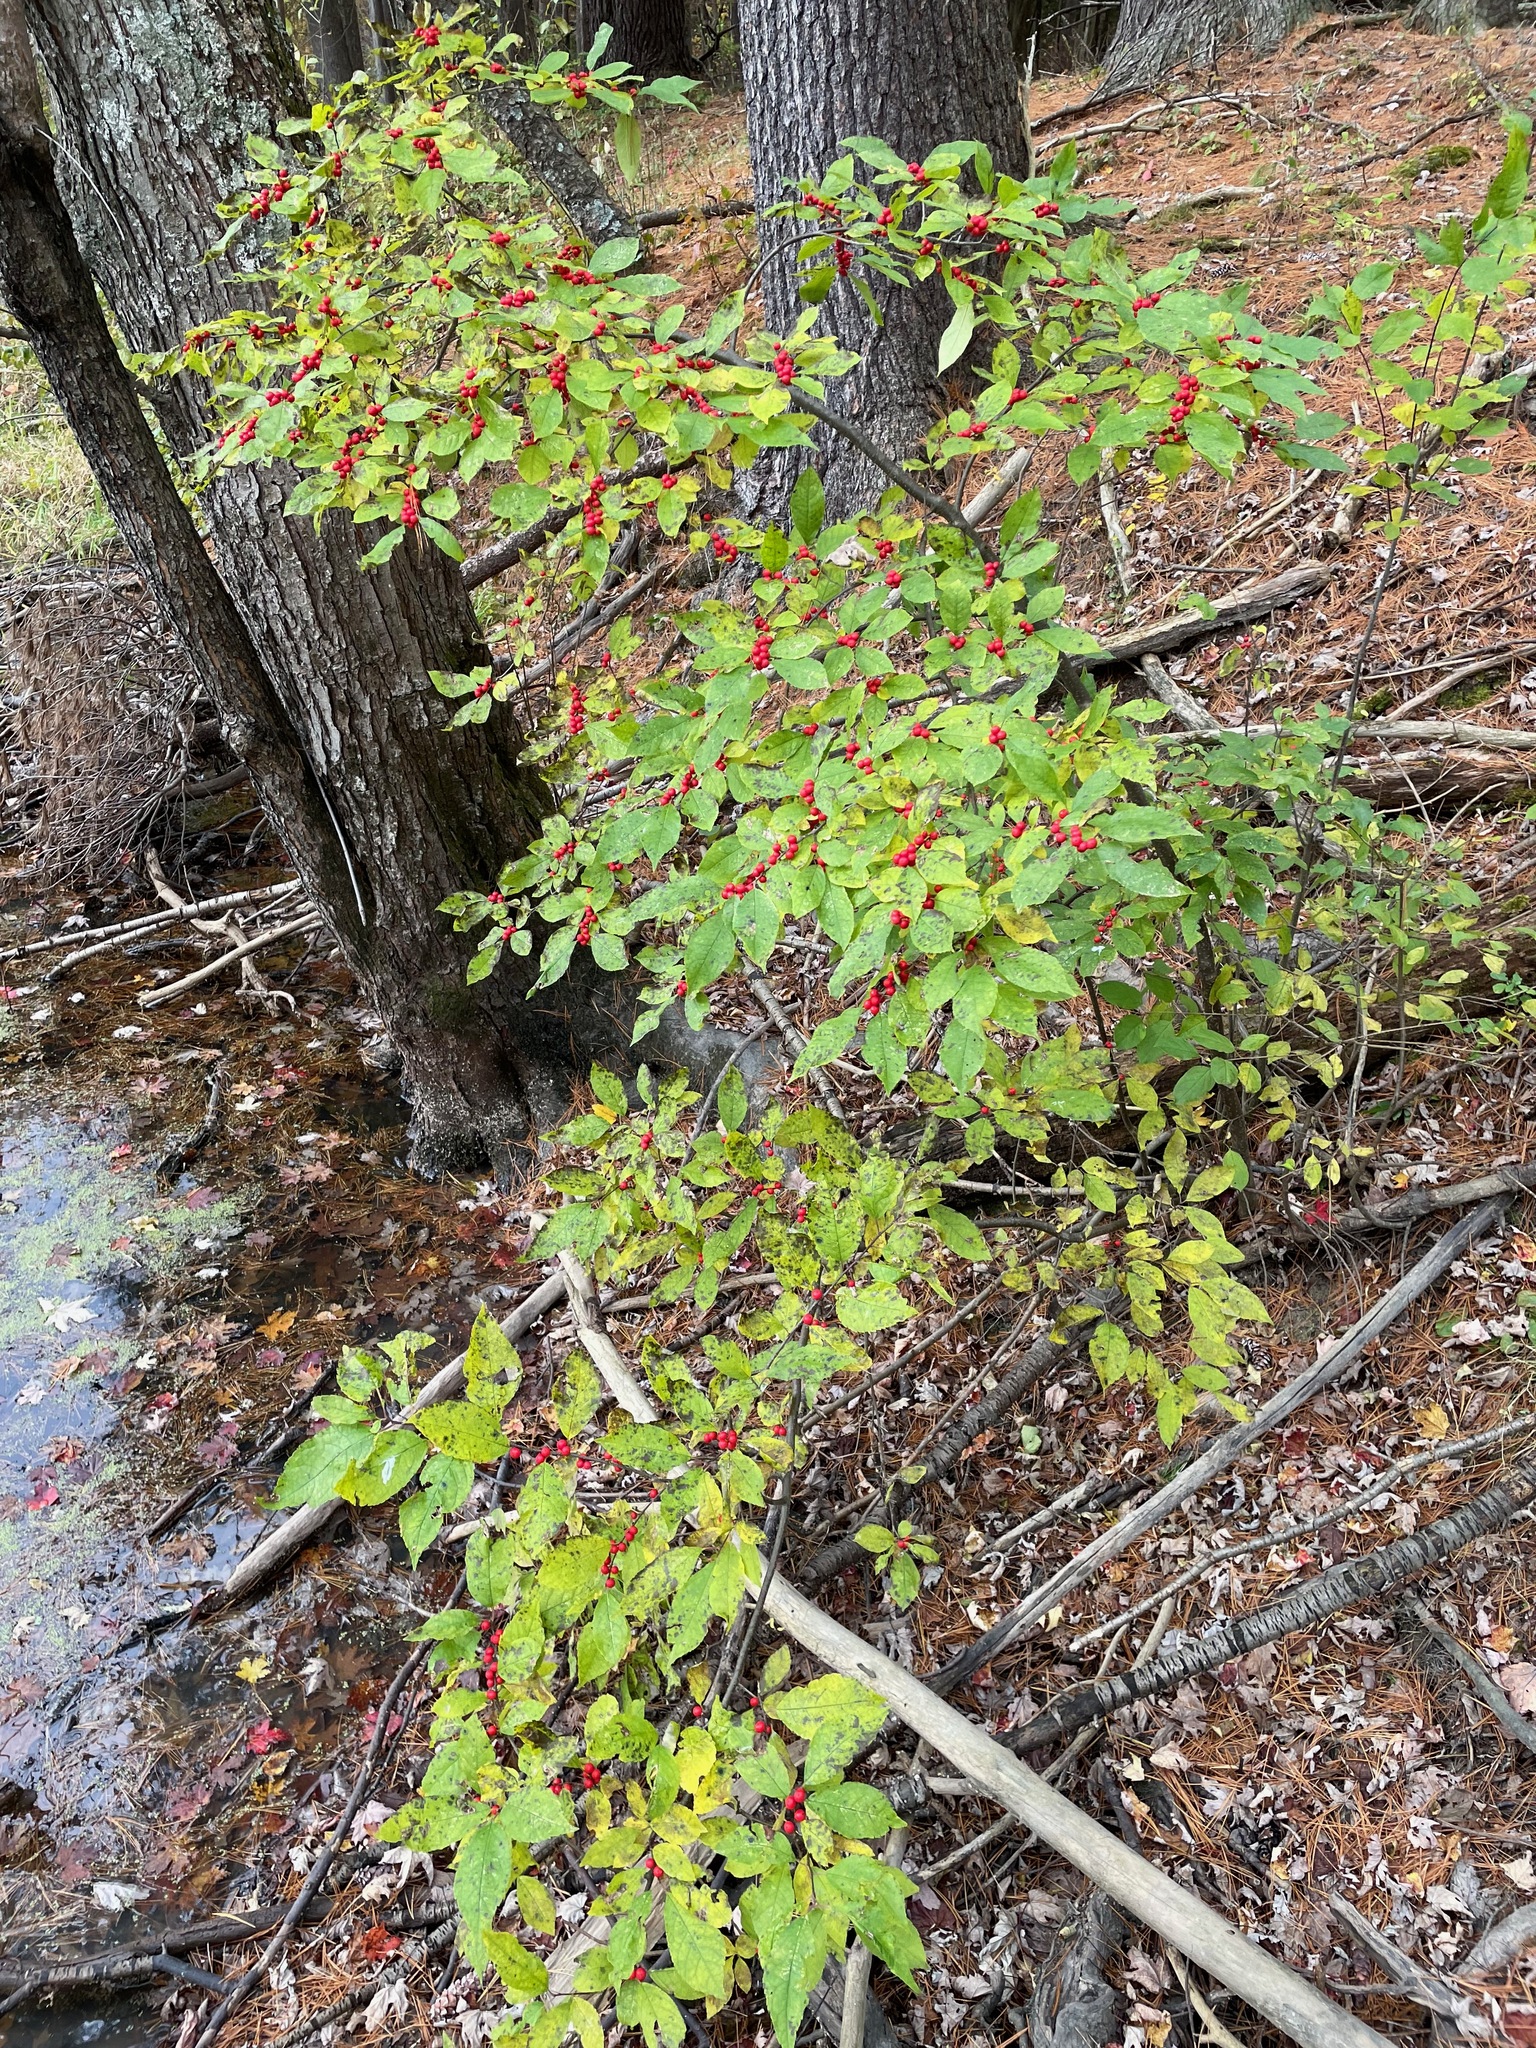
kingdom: Plantae
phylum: Tracheophyta
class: Magnoliopsida
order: Aquifoliales
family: Aquifoliaceae
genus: Ilex
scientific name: Ilex verticillata
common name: Virginia winterberry
